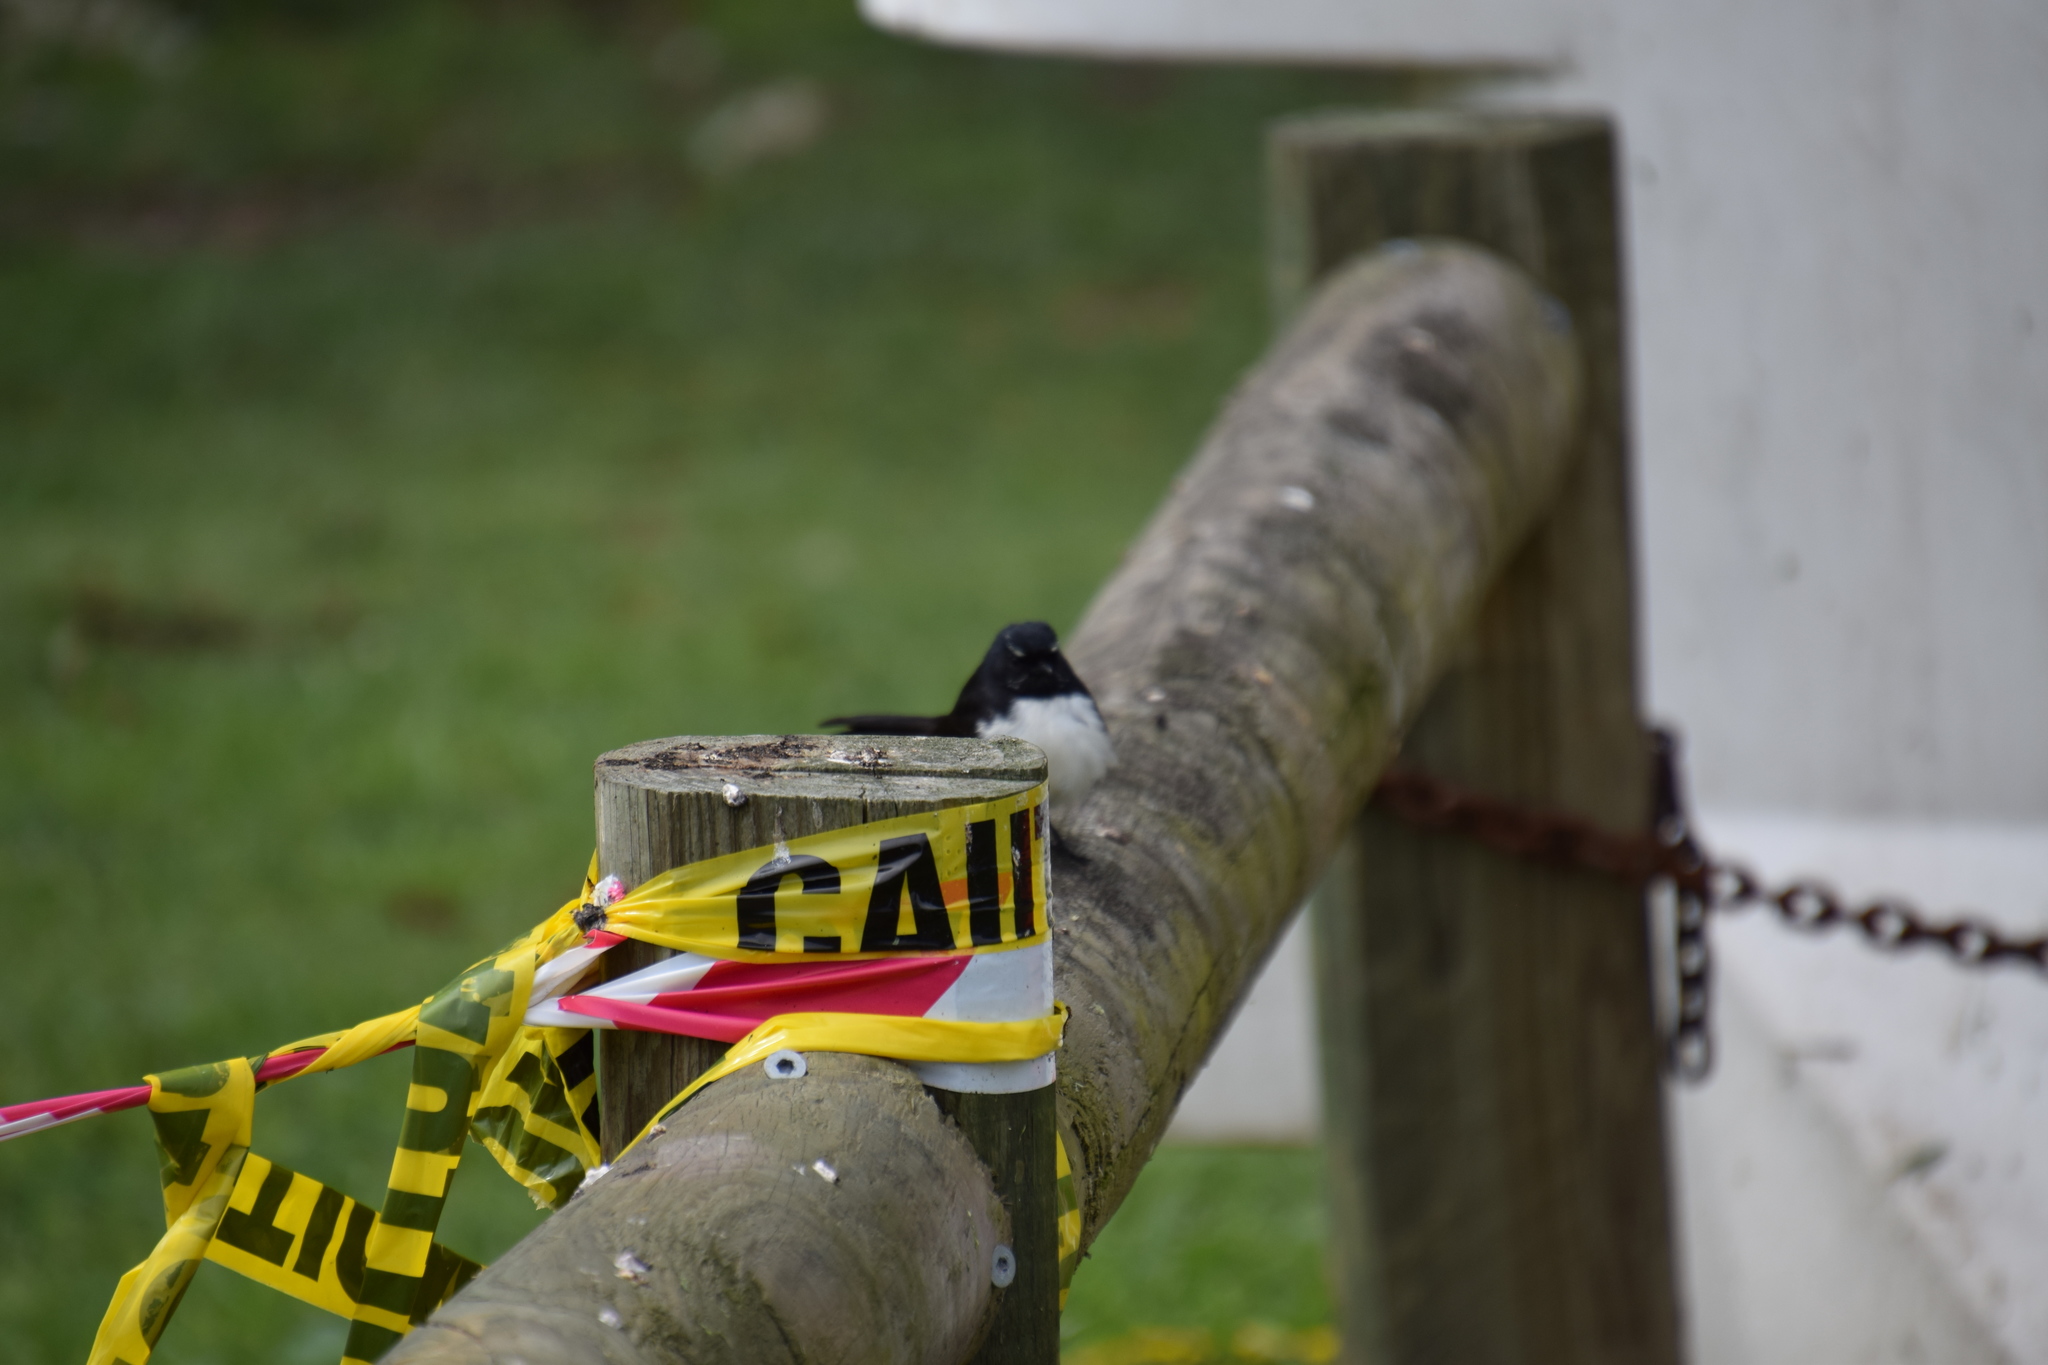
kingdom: Animalia
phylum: Chordata
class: Aves
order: Passeriformes
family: Rhipiduridae
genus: Rhipidura
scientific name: Rhipidura leucophrys
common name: Willie wagtail
